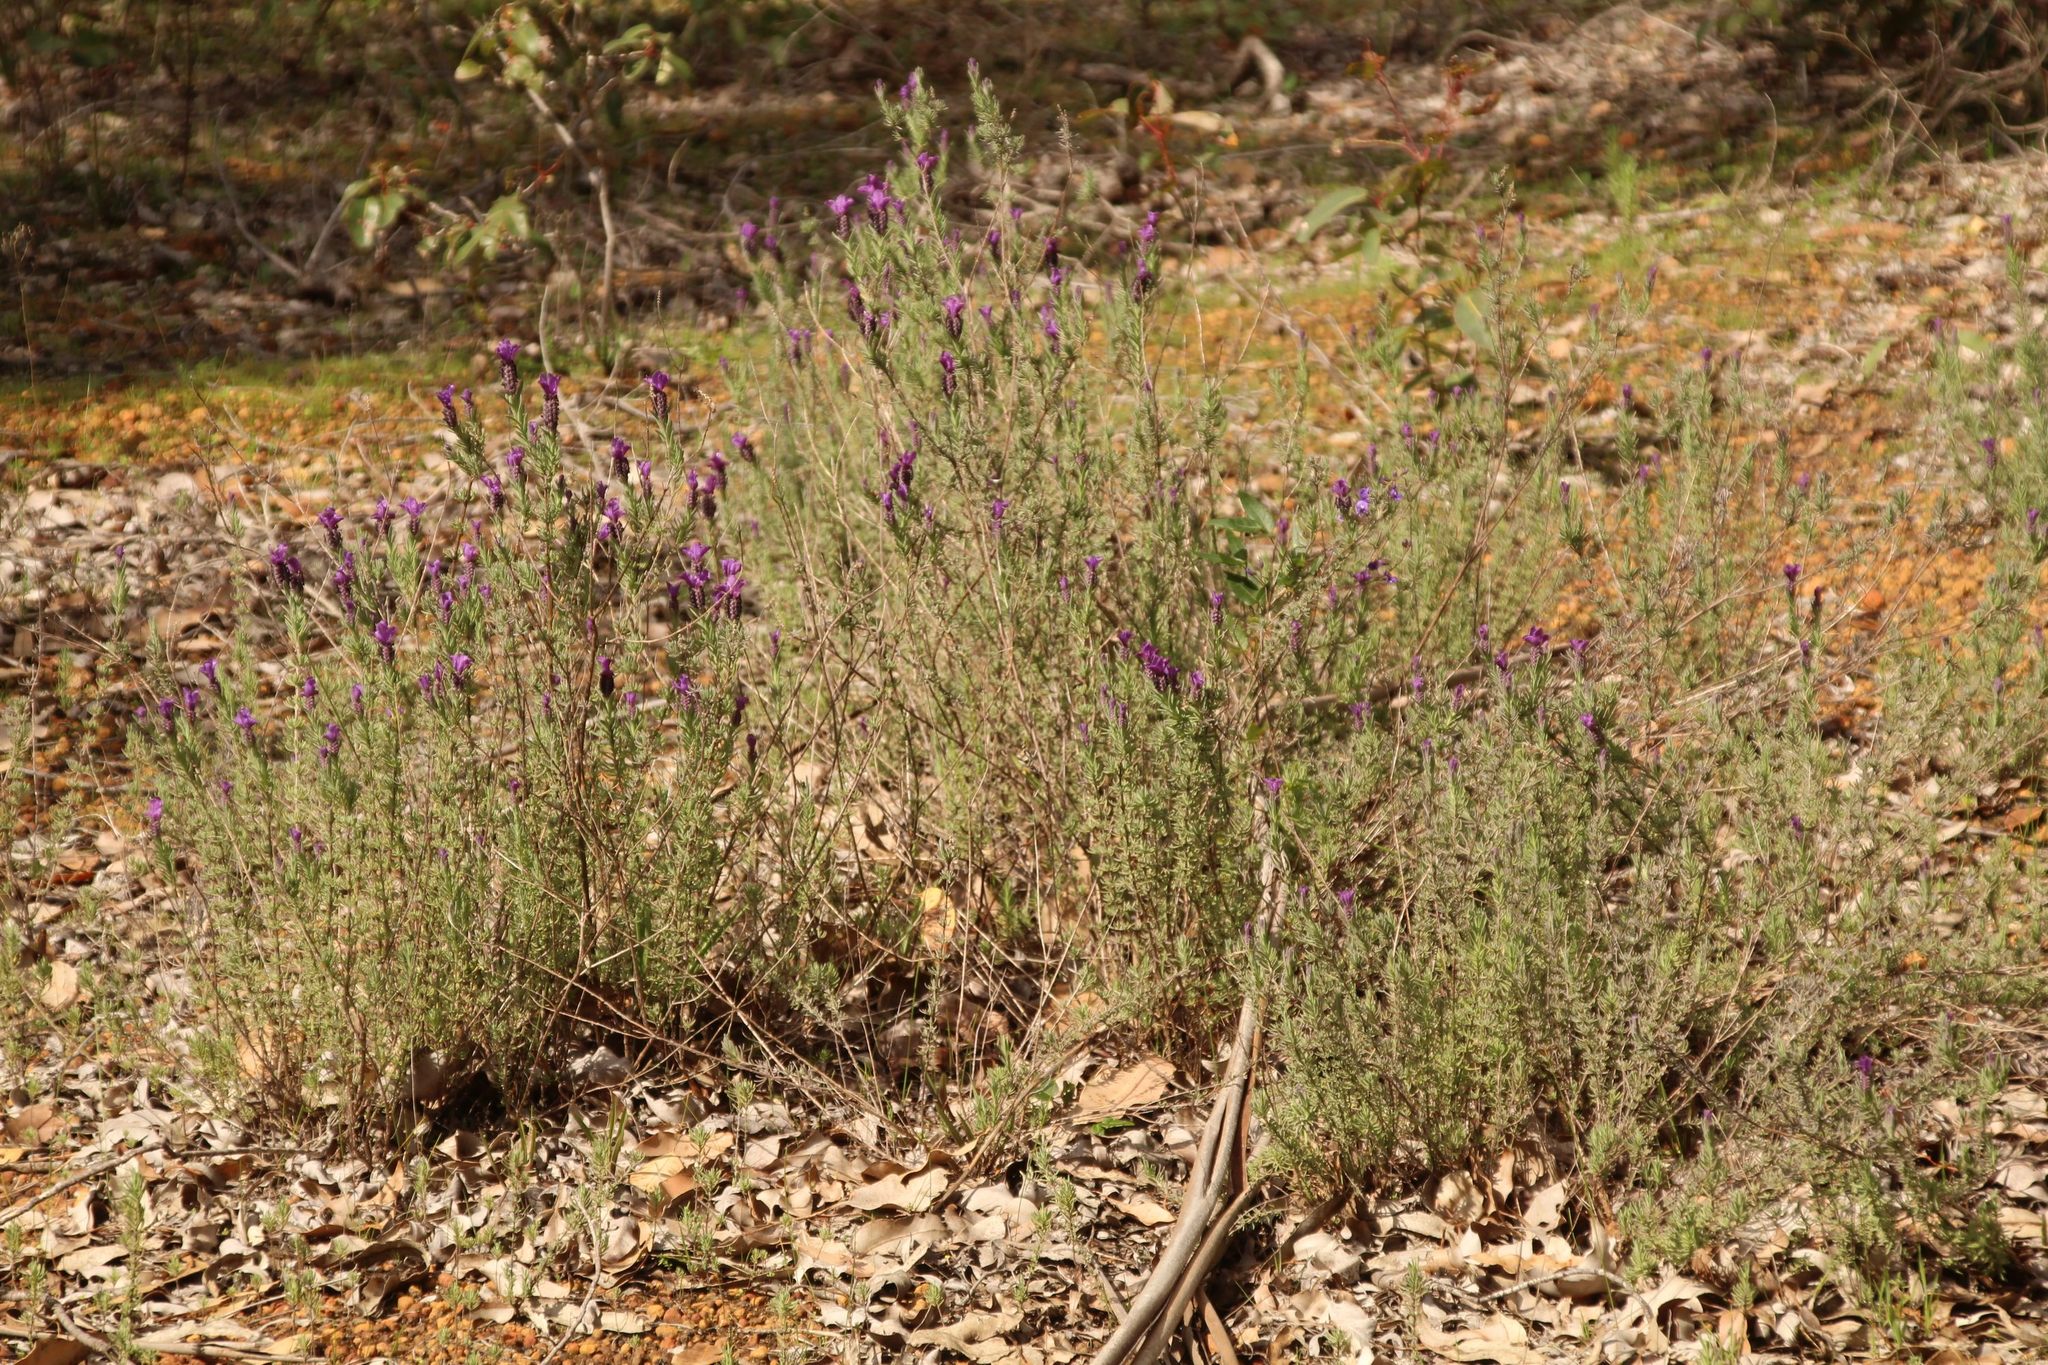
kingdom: Plantae
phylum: Tracheophyta
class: Magnoliopsida
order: Lamiales
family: Lamiaceae
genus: Lavandula
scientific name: Lavandula stoechas
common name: French lavender
